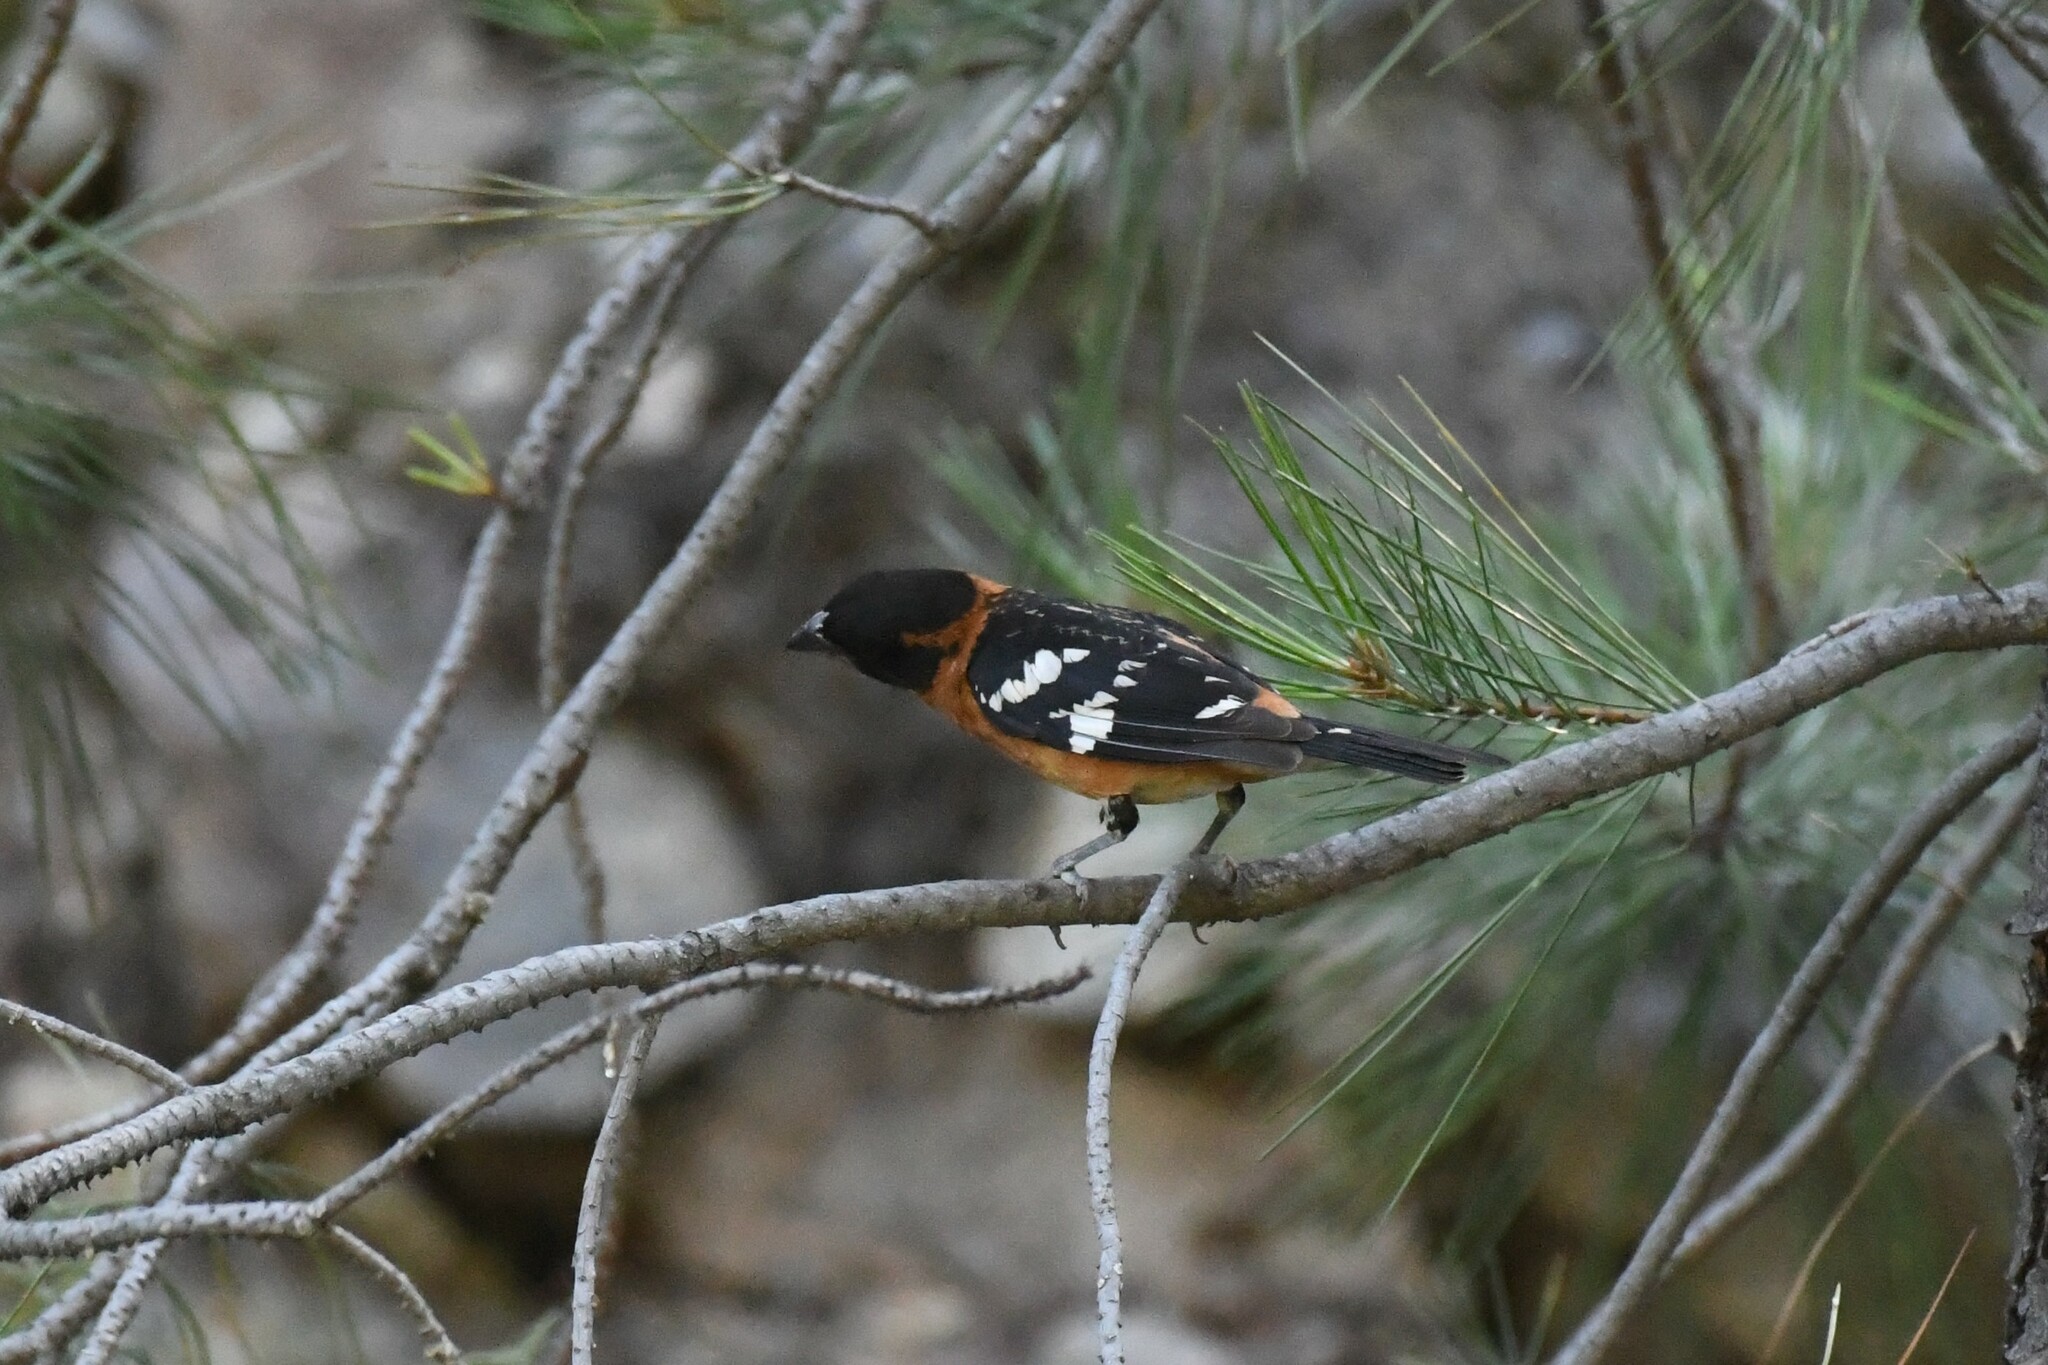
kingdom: Animalia
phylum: Chordata
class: Aves
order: Passeriformes
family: Cardinalidae
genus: Pheucticus
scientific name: Pheucticus melanocephalus
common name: Black-headed grosbeak
